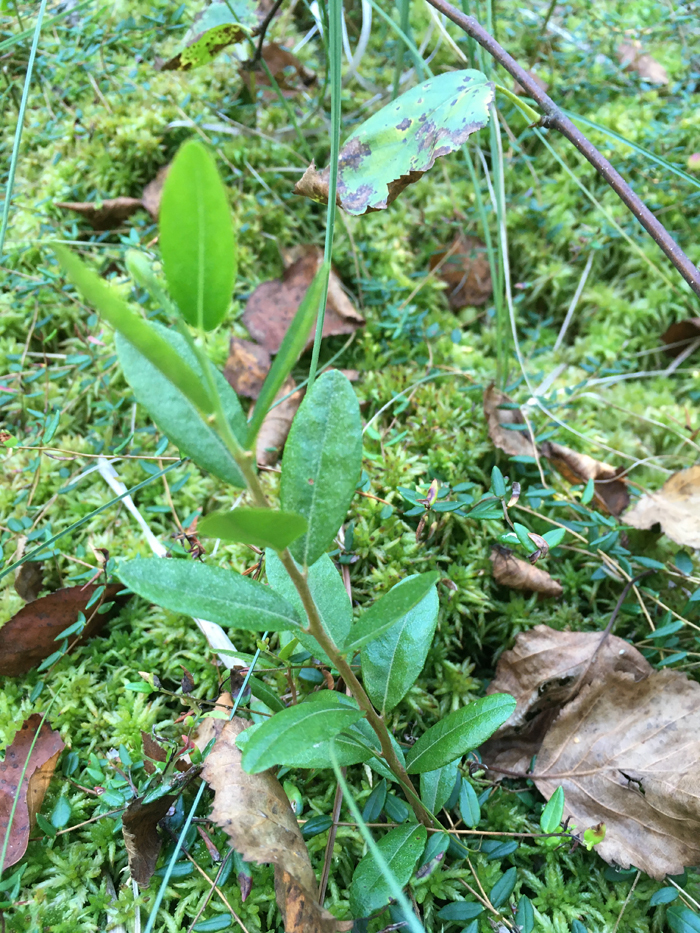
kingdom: Plantae
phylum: Tracheophyta
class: Magnoliopsida
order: Ericales
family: Ericaceae
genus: Chamaedaphne
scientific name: Chamaedaphne calyculata
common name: Leatherleaf
